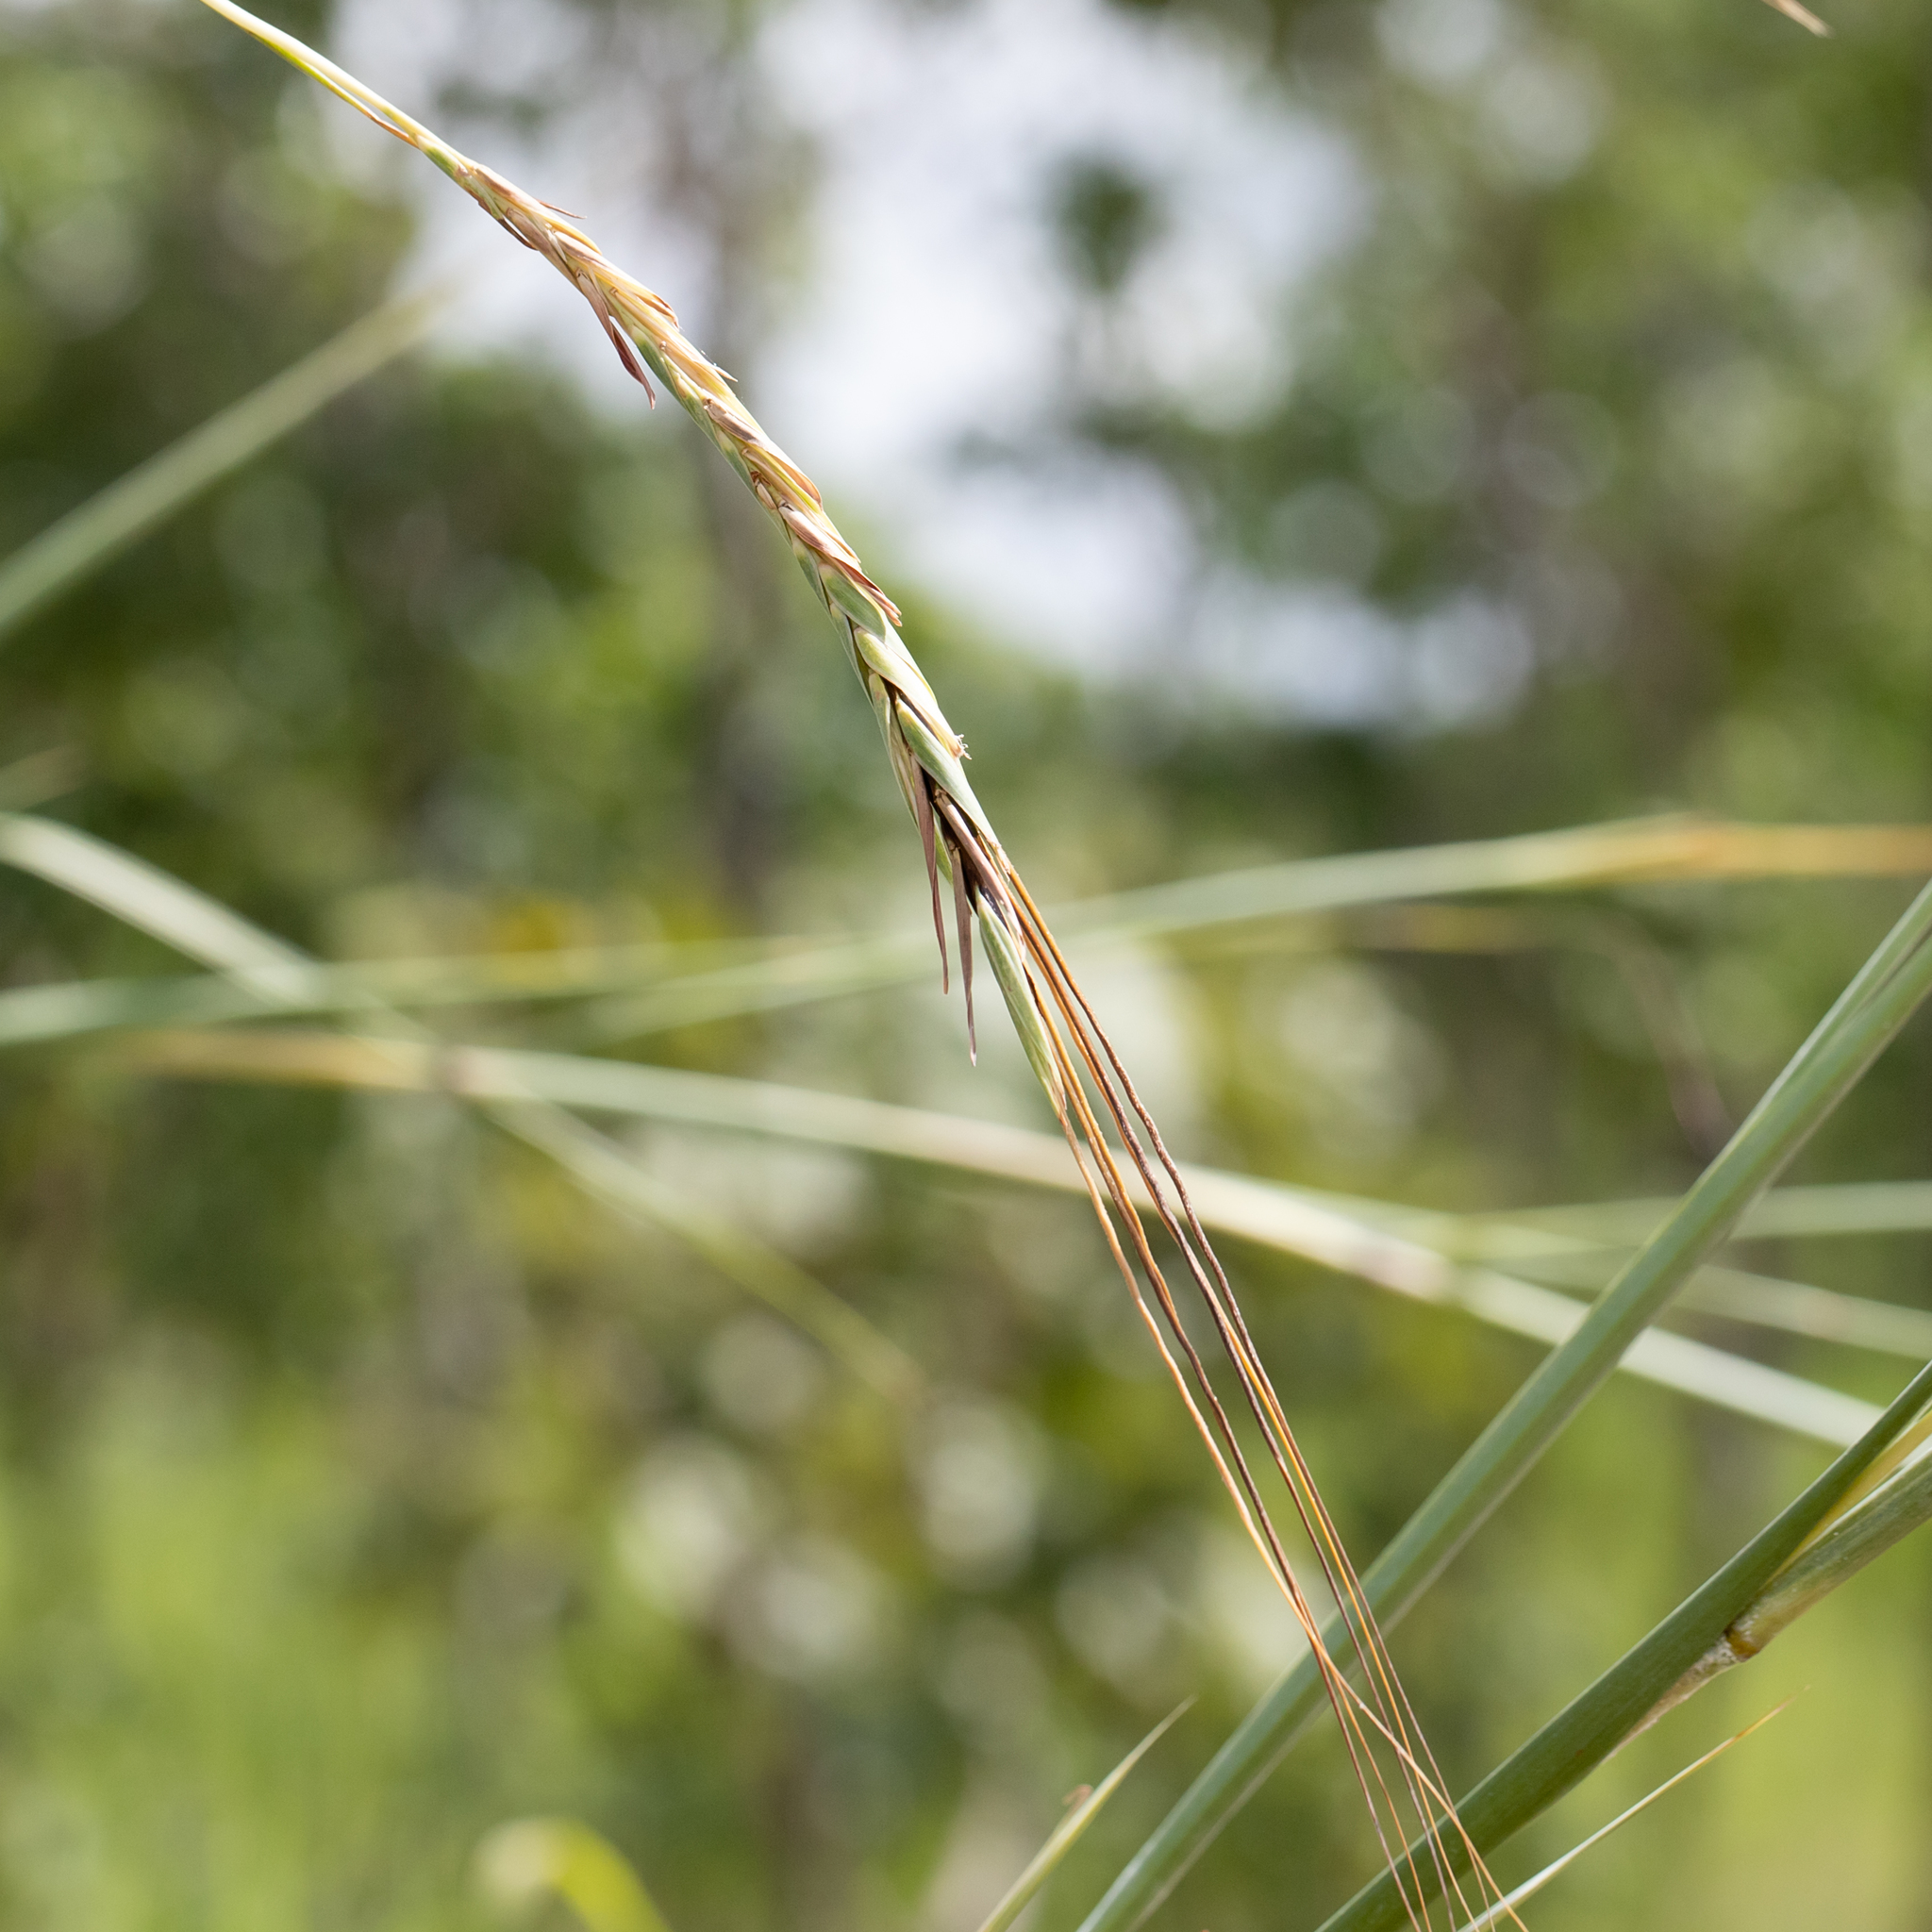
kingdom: Plantae
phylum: Tracheophyta
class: Liliopsida
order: Poales
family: Poaceae
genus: Heteropogon
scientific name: Heteropogon triticeus
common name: Sugar grass
